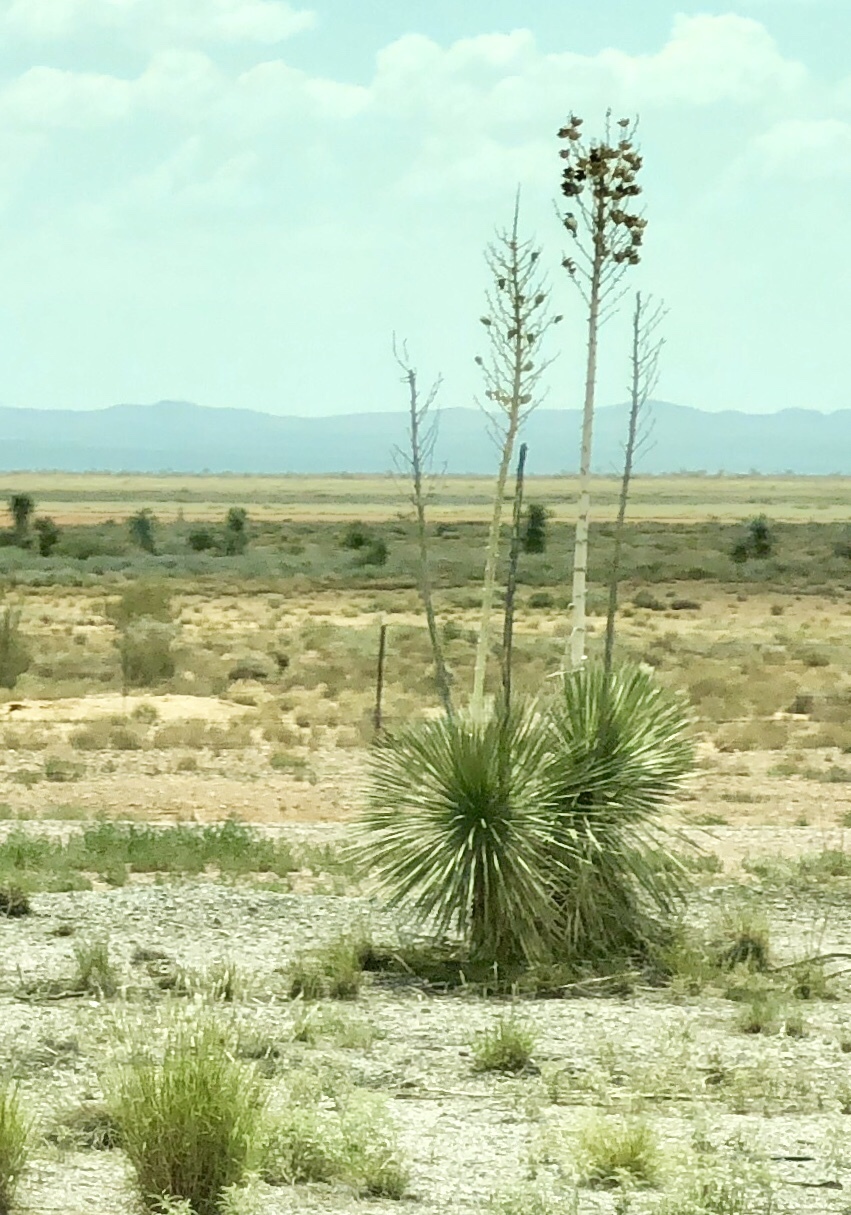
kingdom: Plantae
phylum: Tracheophyta
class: Liliopsida
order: Asparagales
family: Asparagaceae
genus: Yucca
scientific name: Yucca elata
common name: Palmella
